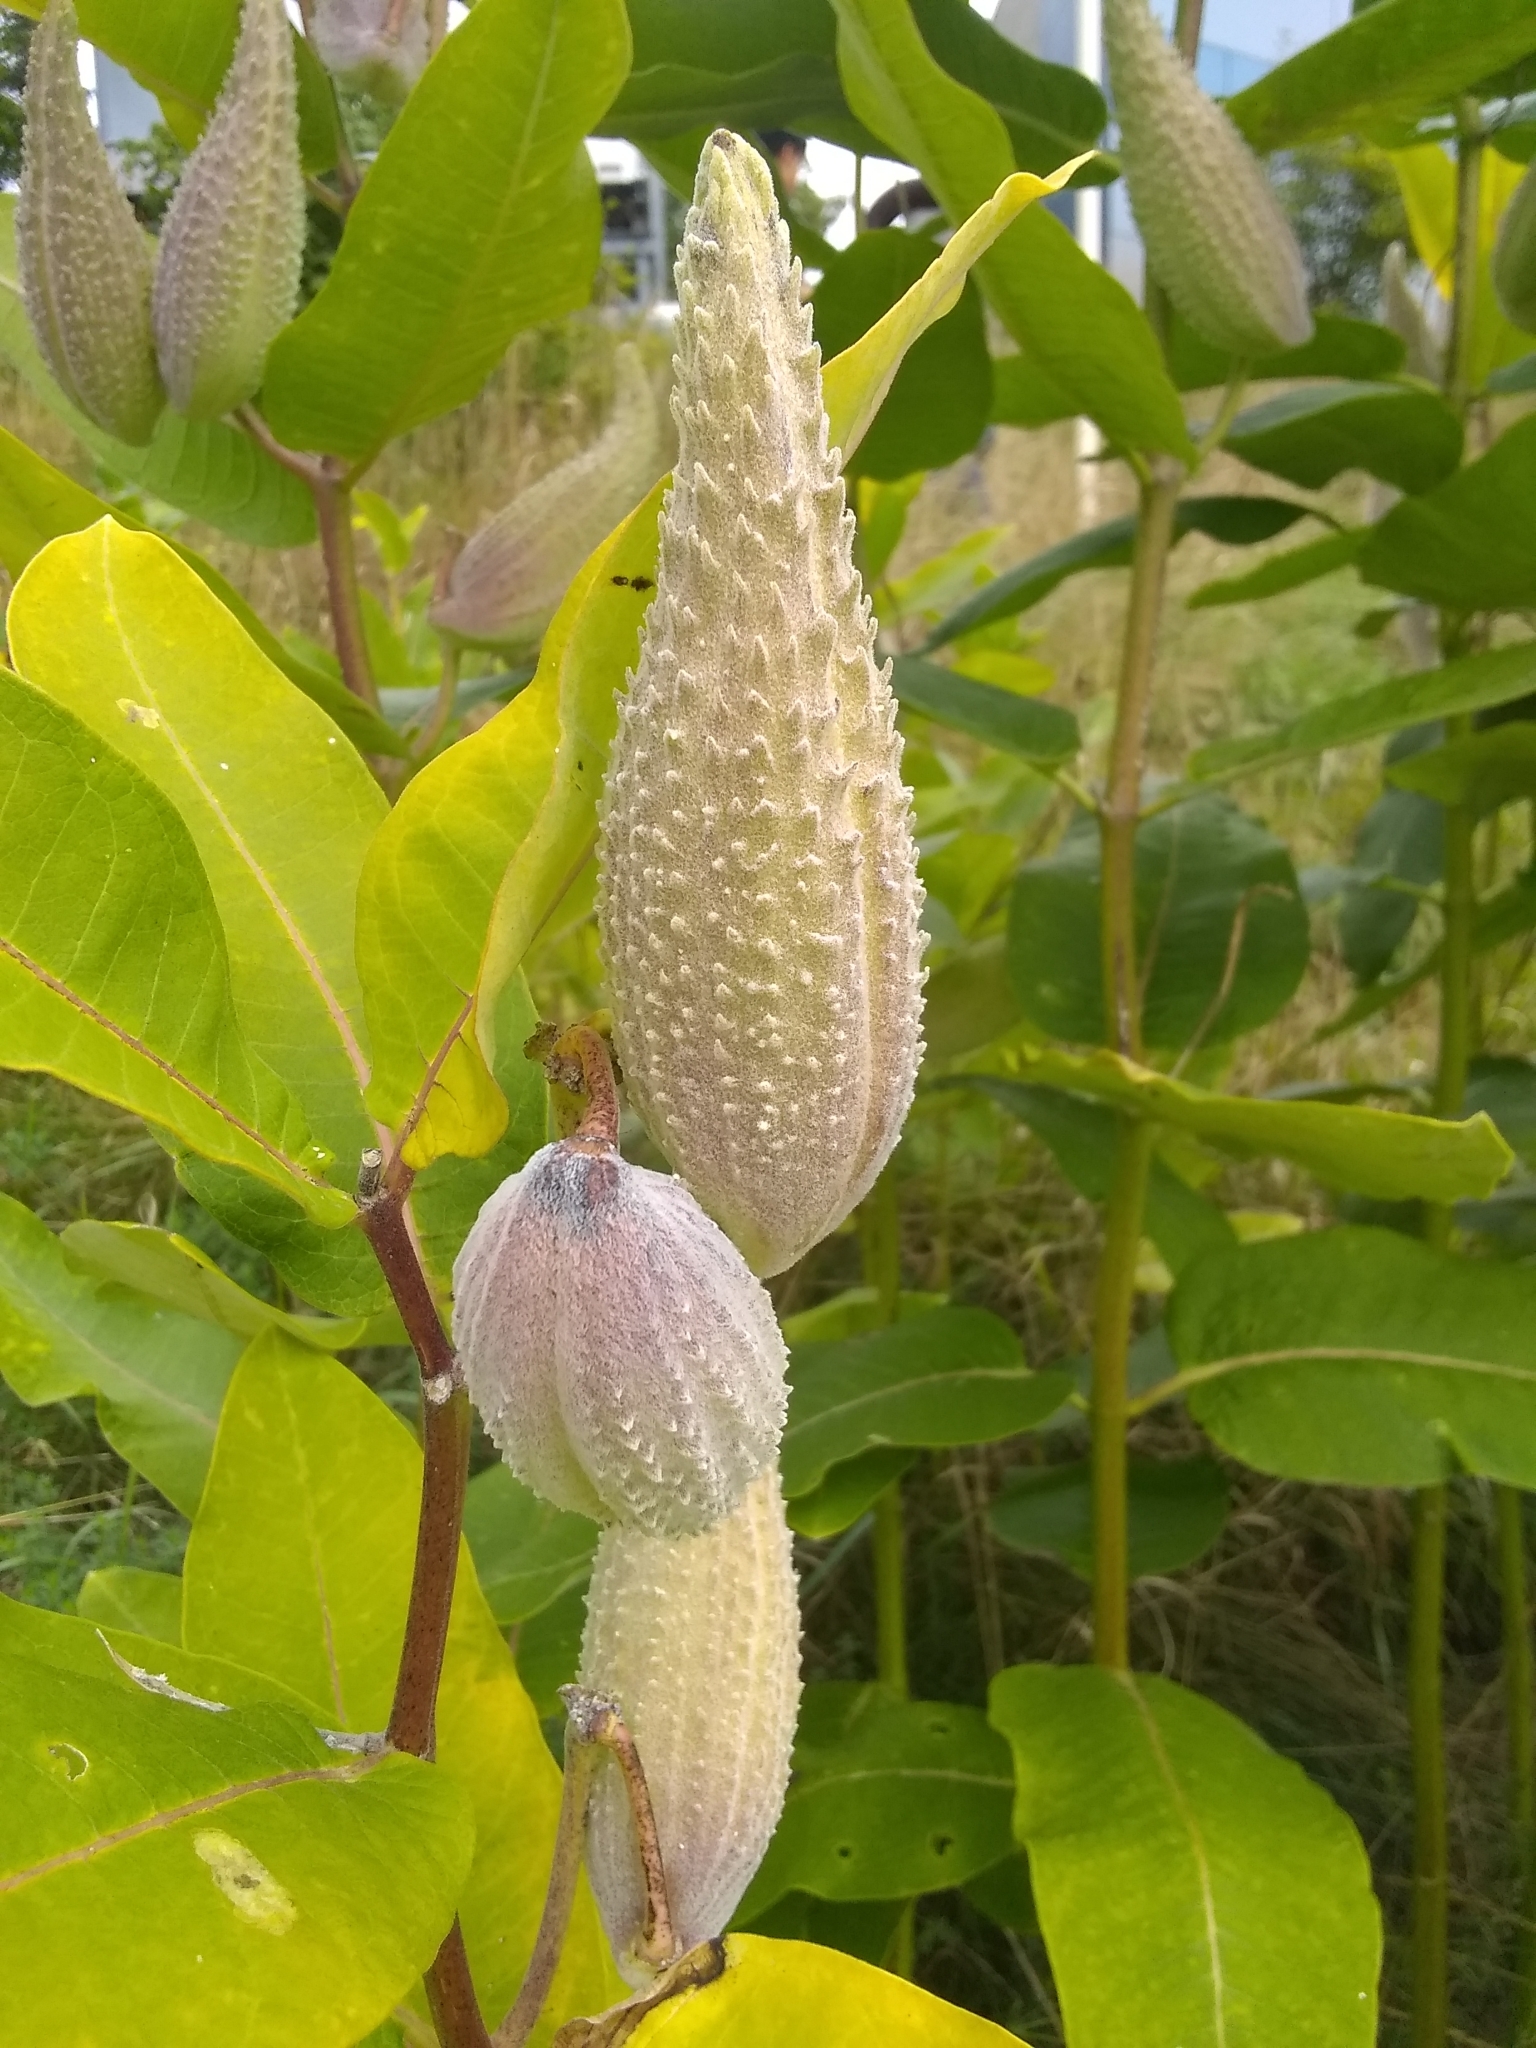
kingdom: Plantae
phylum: Tracheophyta
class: Magnoliopsida
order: Gentianales
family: Apocynaceae
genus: Asclepias
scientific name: Asclepias syriaca
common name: Common milkweed
